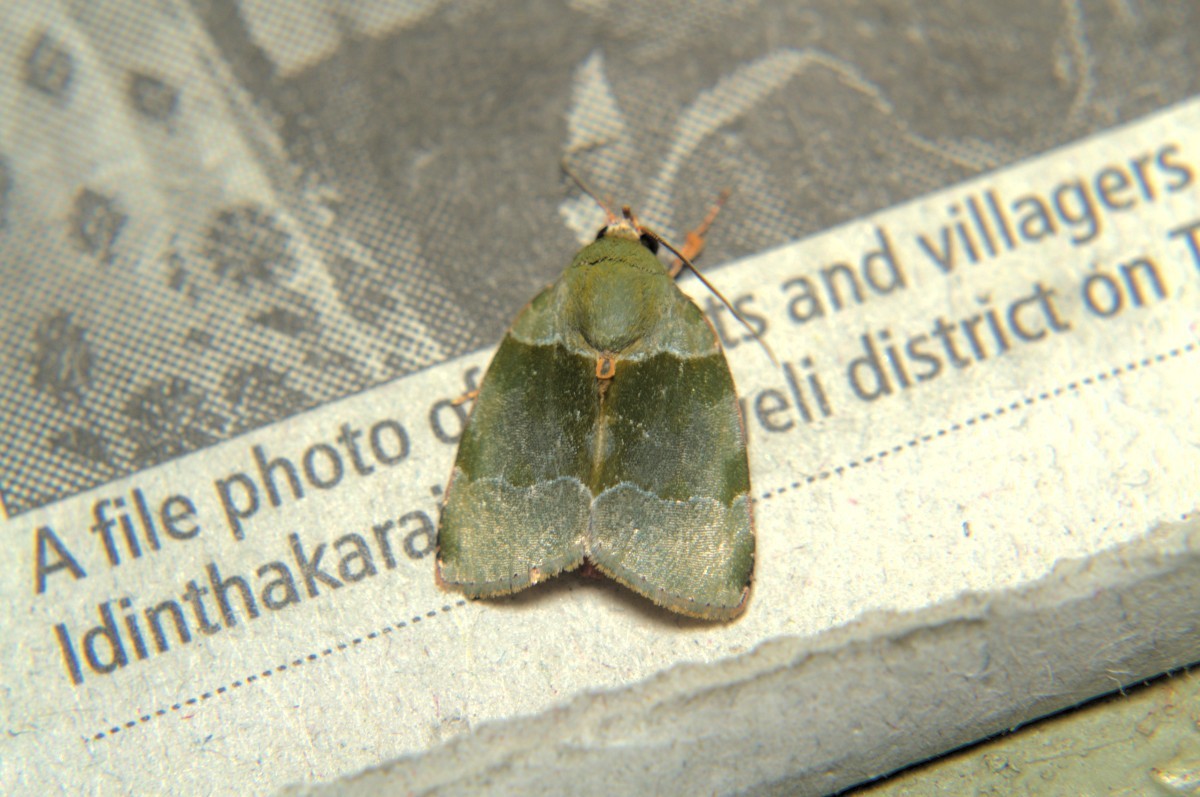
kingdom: Animalia
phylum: Arthropoda
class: Insecta
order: Lepidoptera
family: Nolidae
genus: Lasiolopha
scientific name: Lasiolopha saturata
